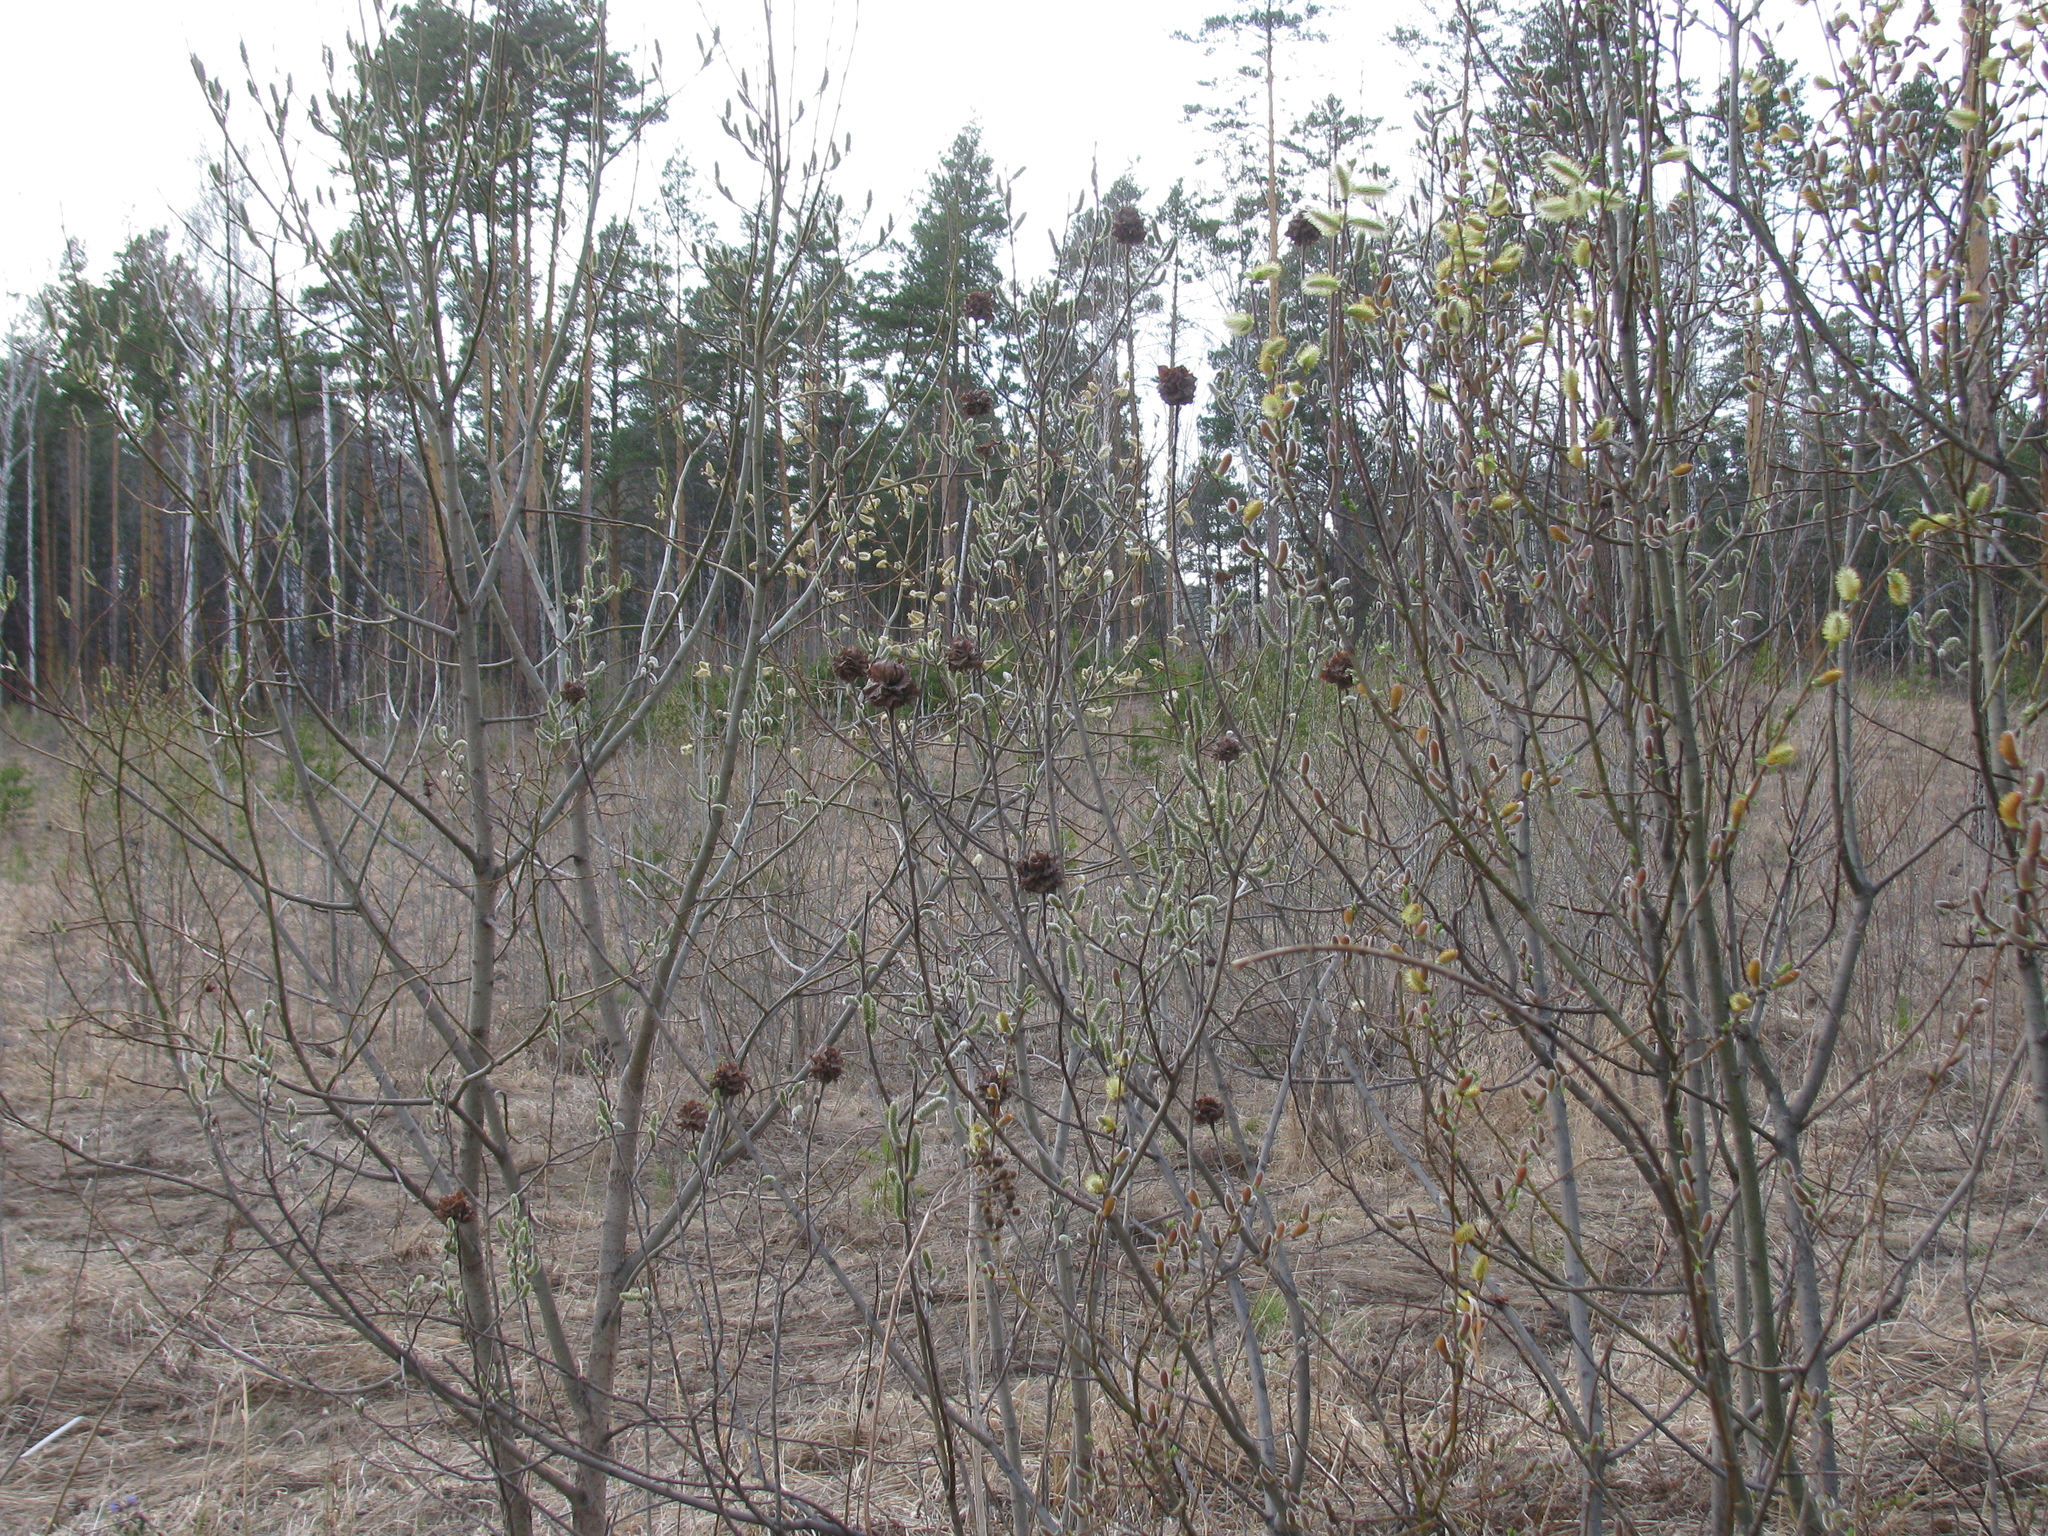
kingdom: Plantae
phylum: Tracheophyta
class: Magnoliopsida
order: Malpighiales
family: Salicaceae
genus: Salix
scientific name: Salix cinerea
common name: Common sallow
